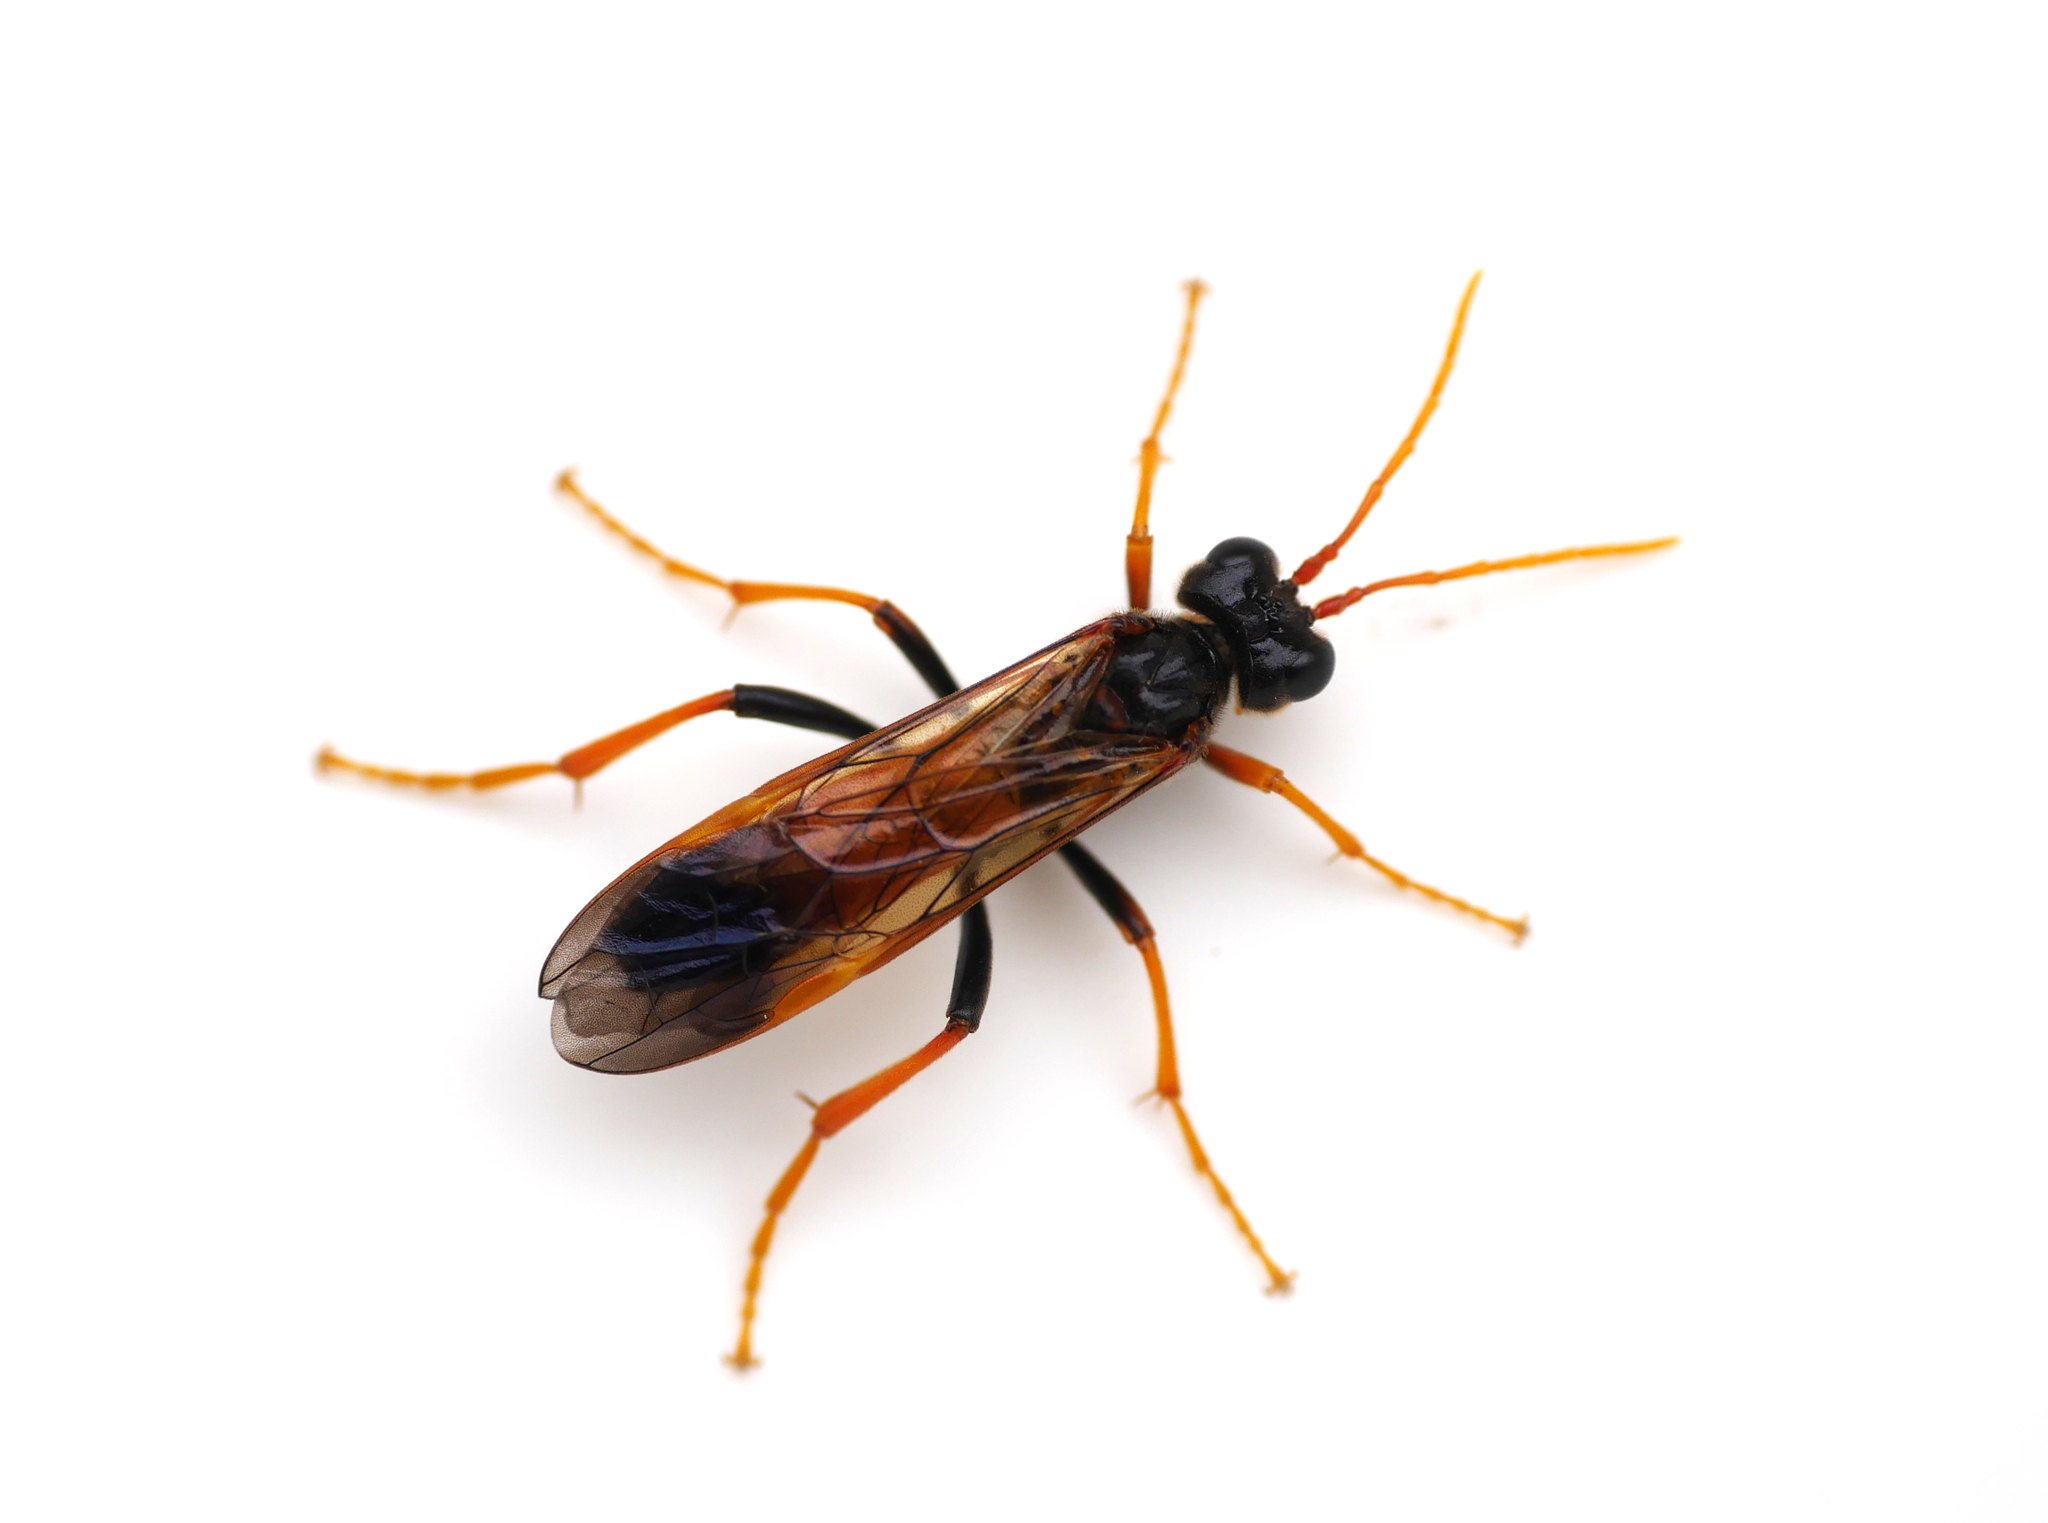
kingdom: Animalia
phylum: Arthropoda
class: Insecta
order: Hymenoptera
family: Tenthredinidae
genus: Tenthredo
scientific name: Tenthredo campestris
